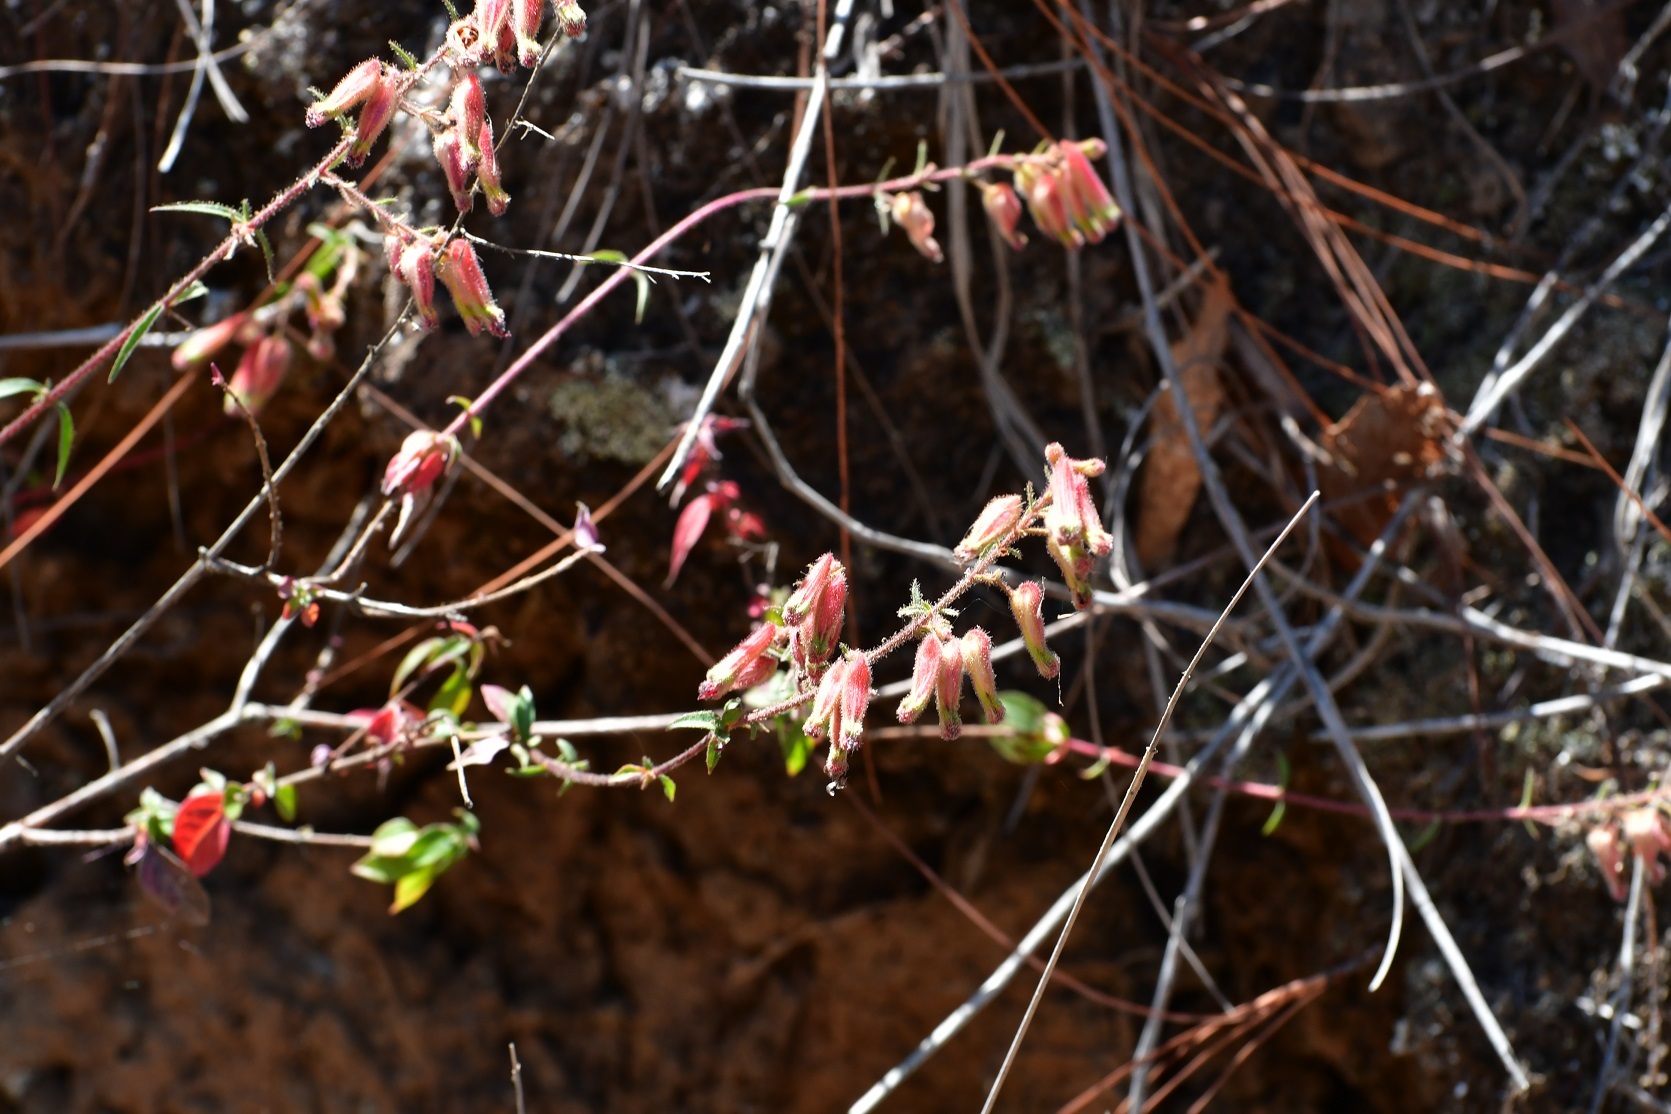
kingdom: Plantae
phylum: Tracheophyta
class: Magnoliopsida
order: Myrtales
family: Lythraceae
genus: Cuphea
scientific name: Cuphea hookeriana
